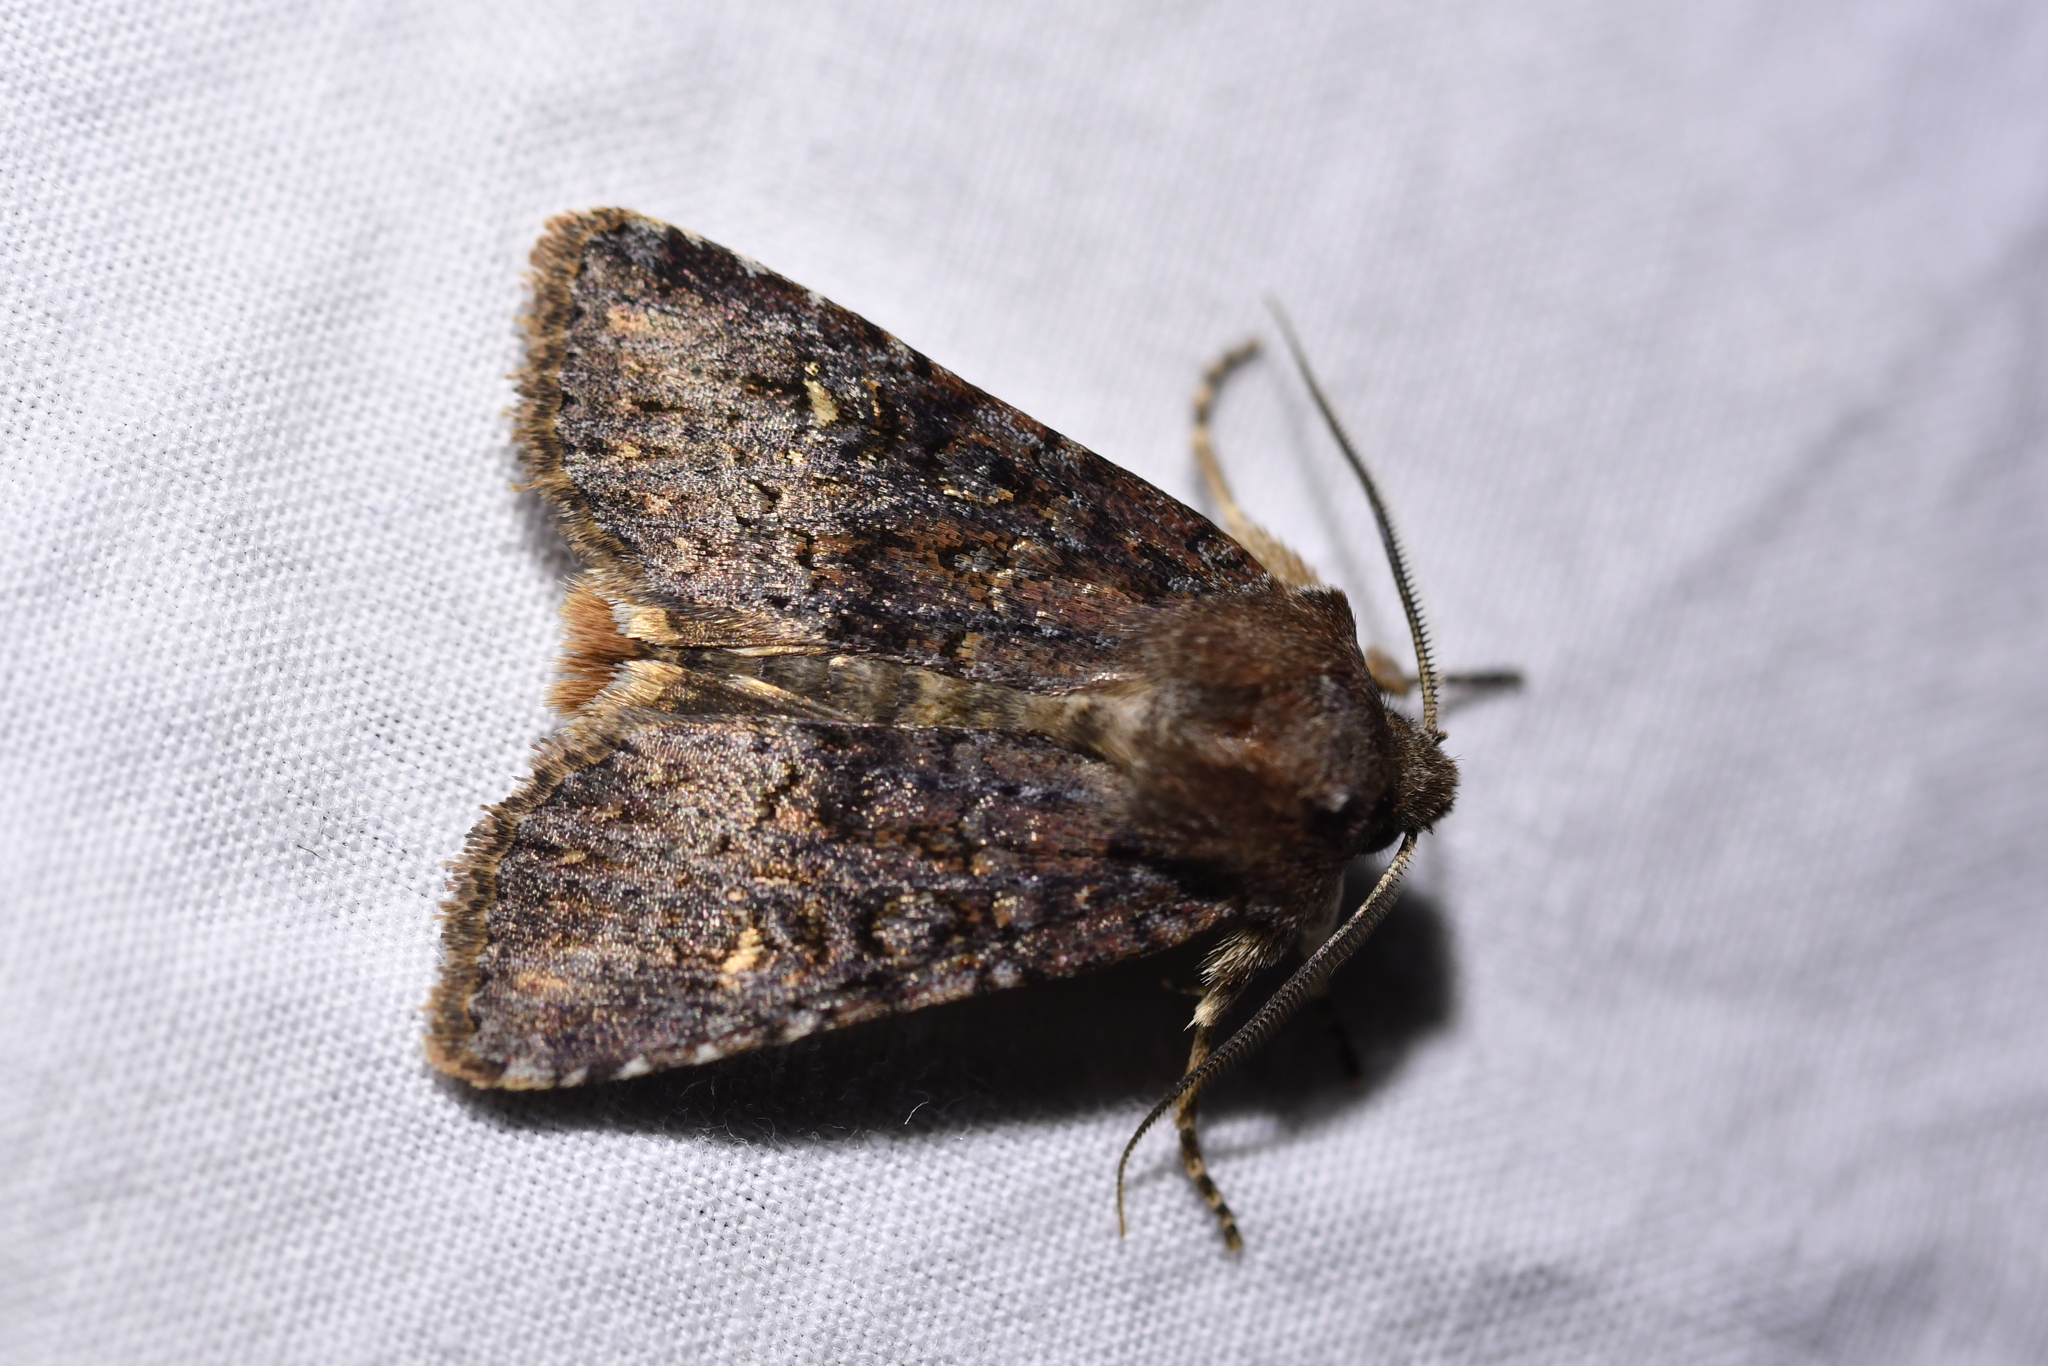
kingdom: Animalia
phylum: Arthropoda
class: Insecta
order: Lepidoptera
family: Noctuidae
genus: Ichneutica
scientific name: Ichneutica agorastis
